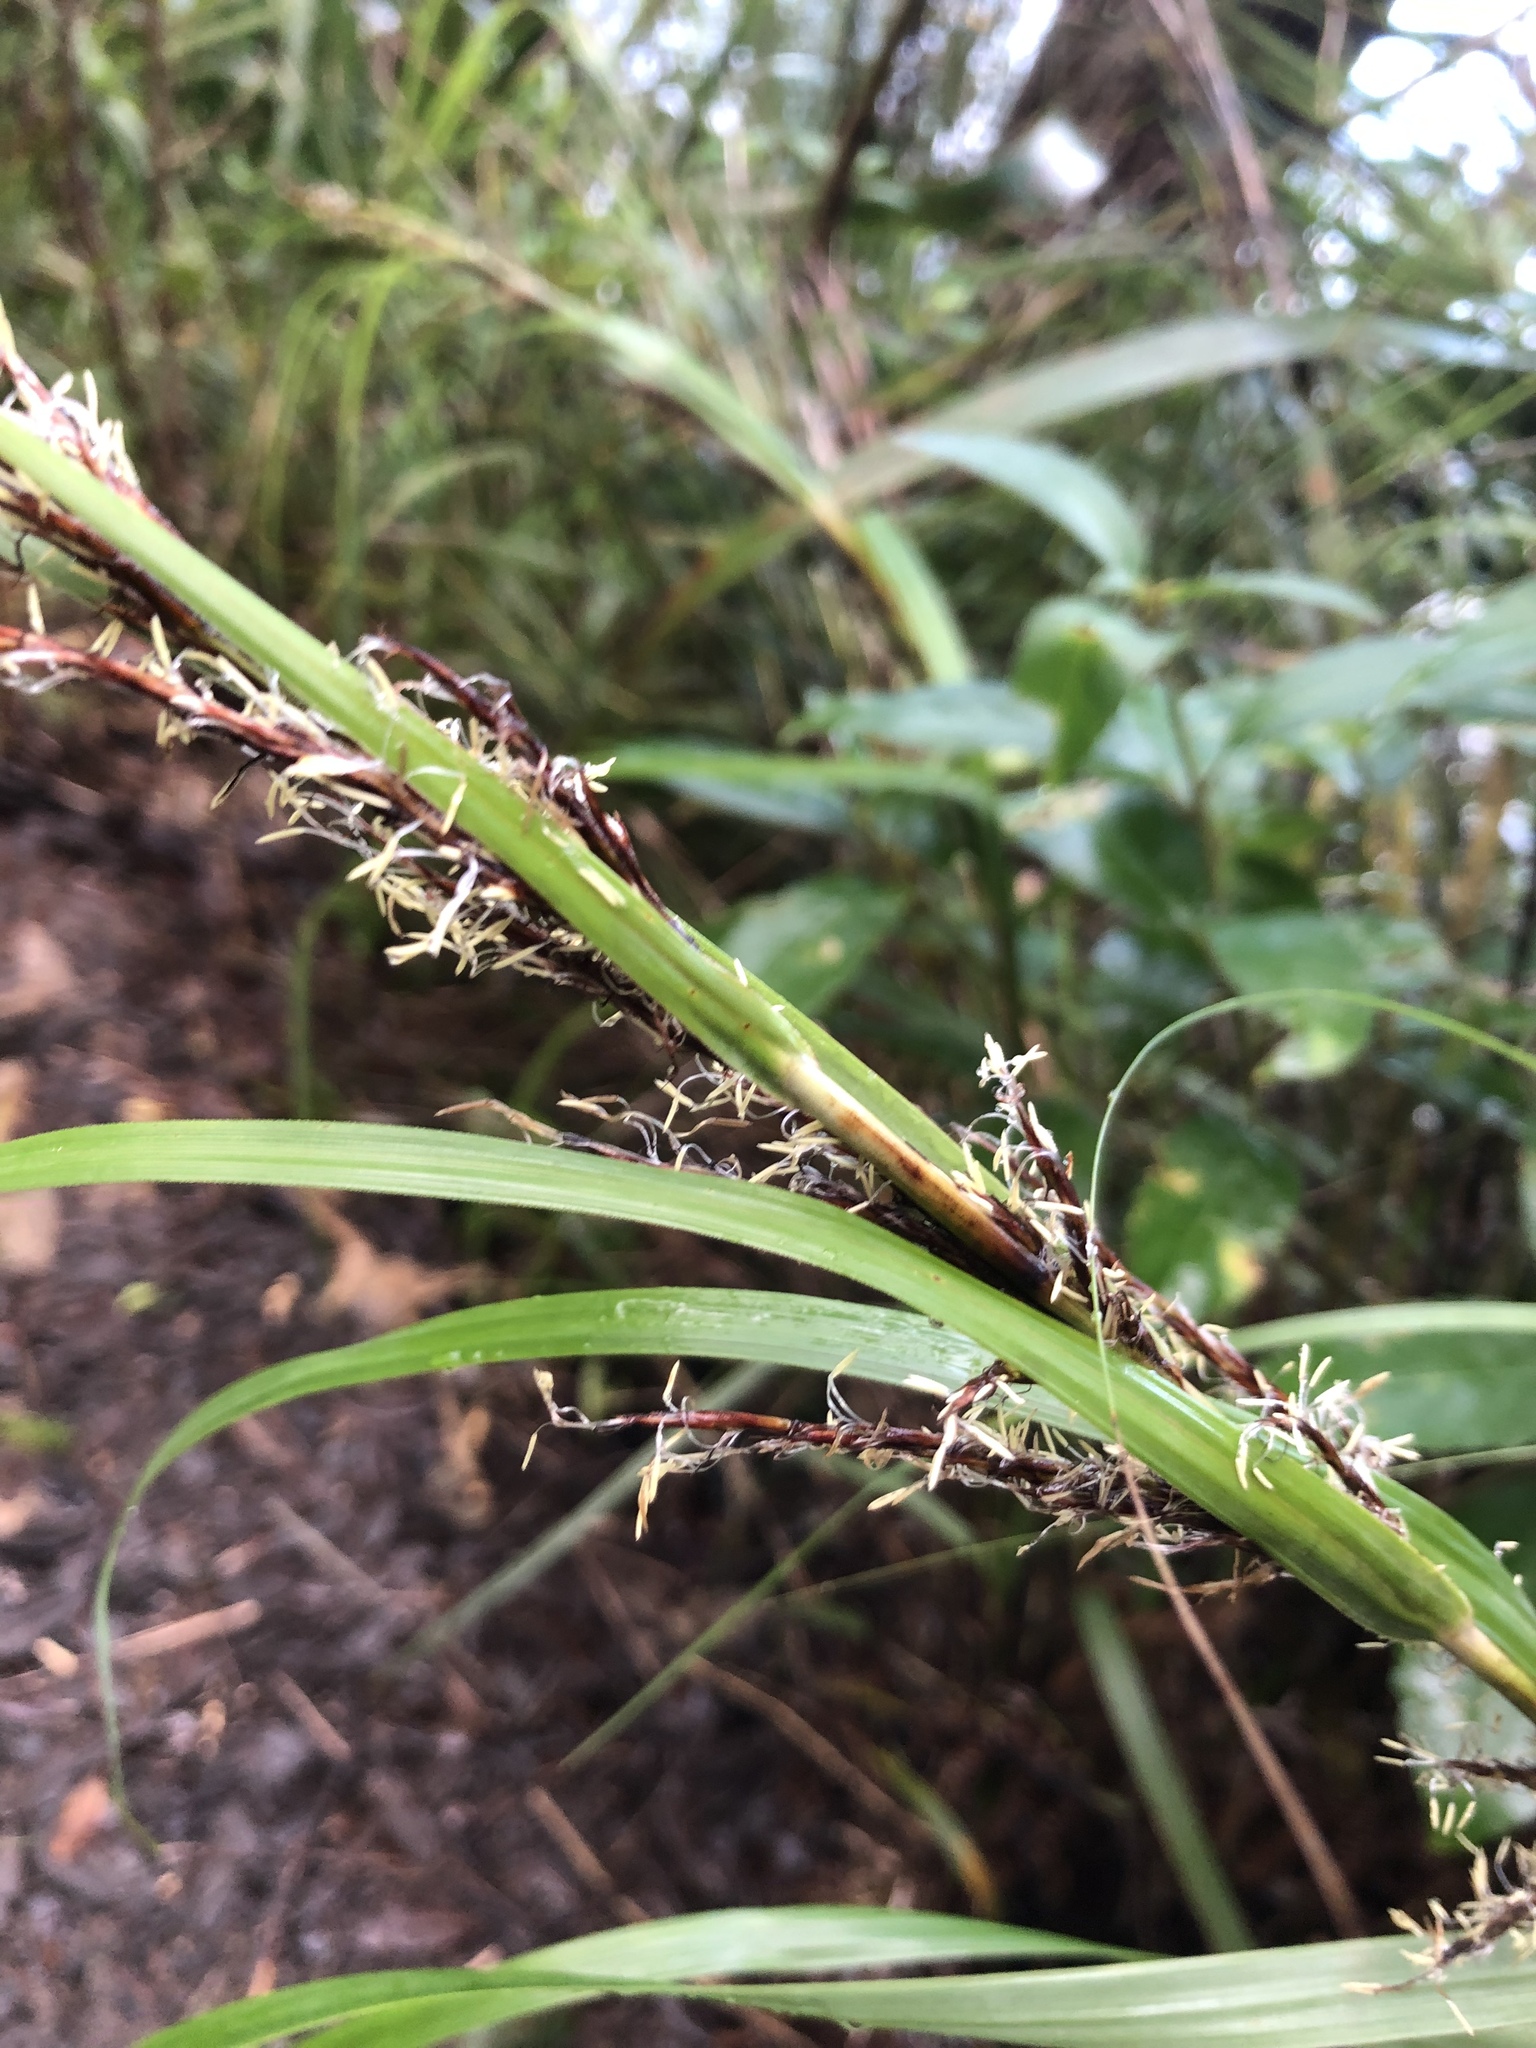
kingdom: Plantae
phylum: Tracheophyta
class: Liliopsida
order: Poales
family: Cyperaceae
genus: Gahnia
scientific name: Gahnia lacera
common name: Sawsedge
